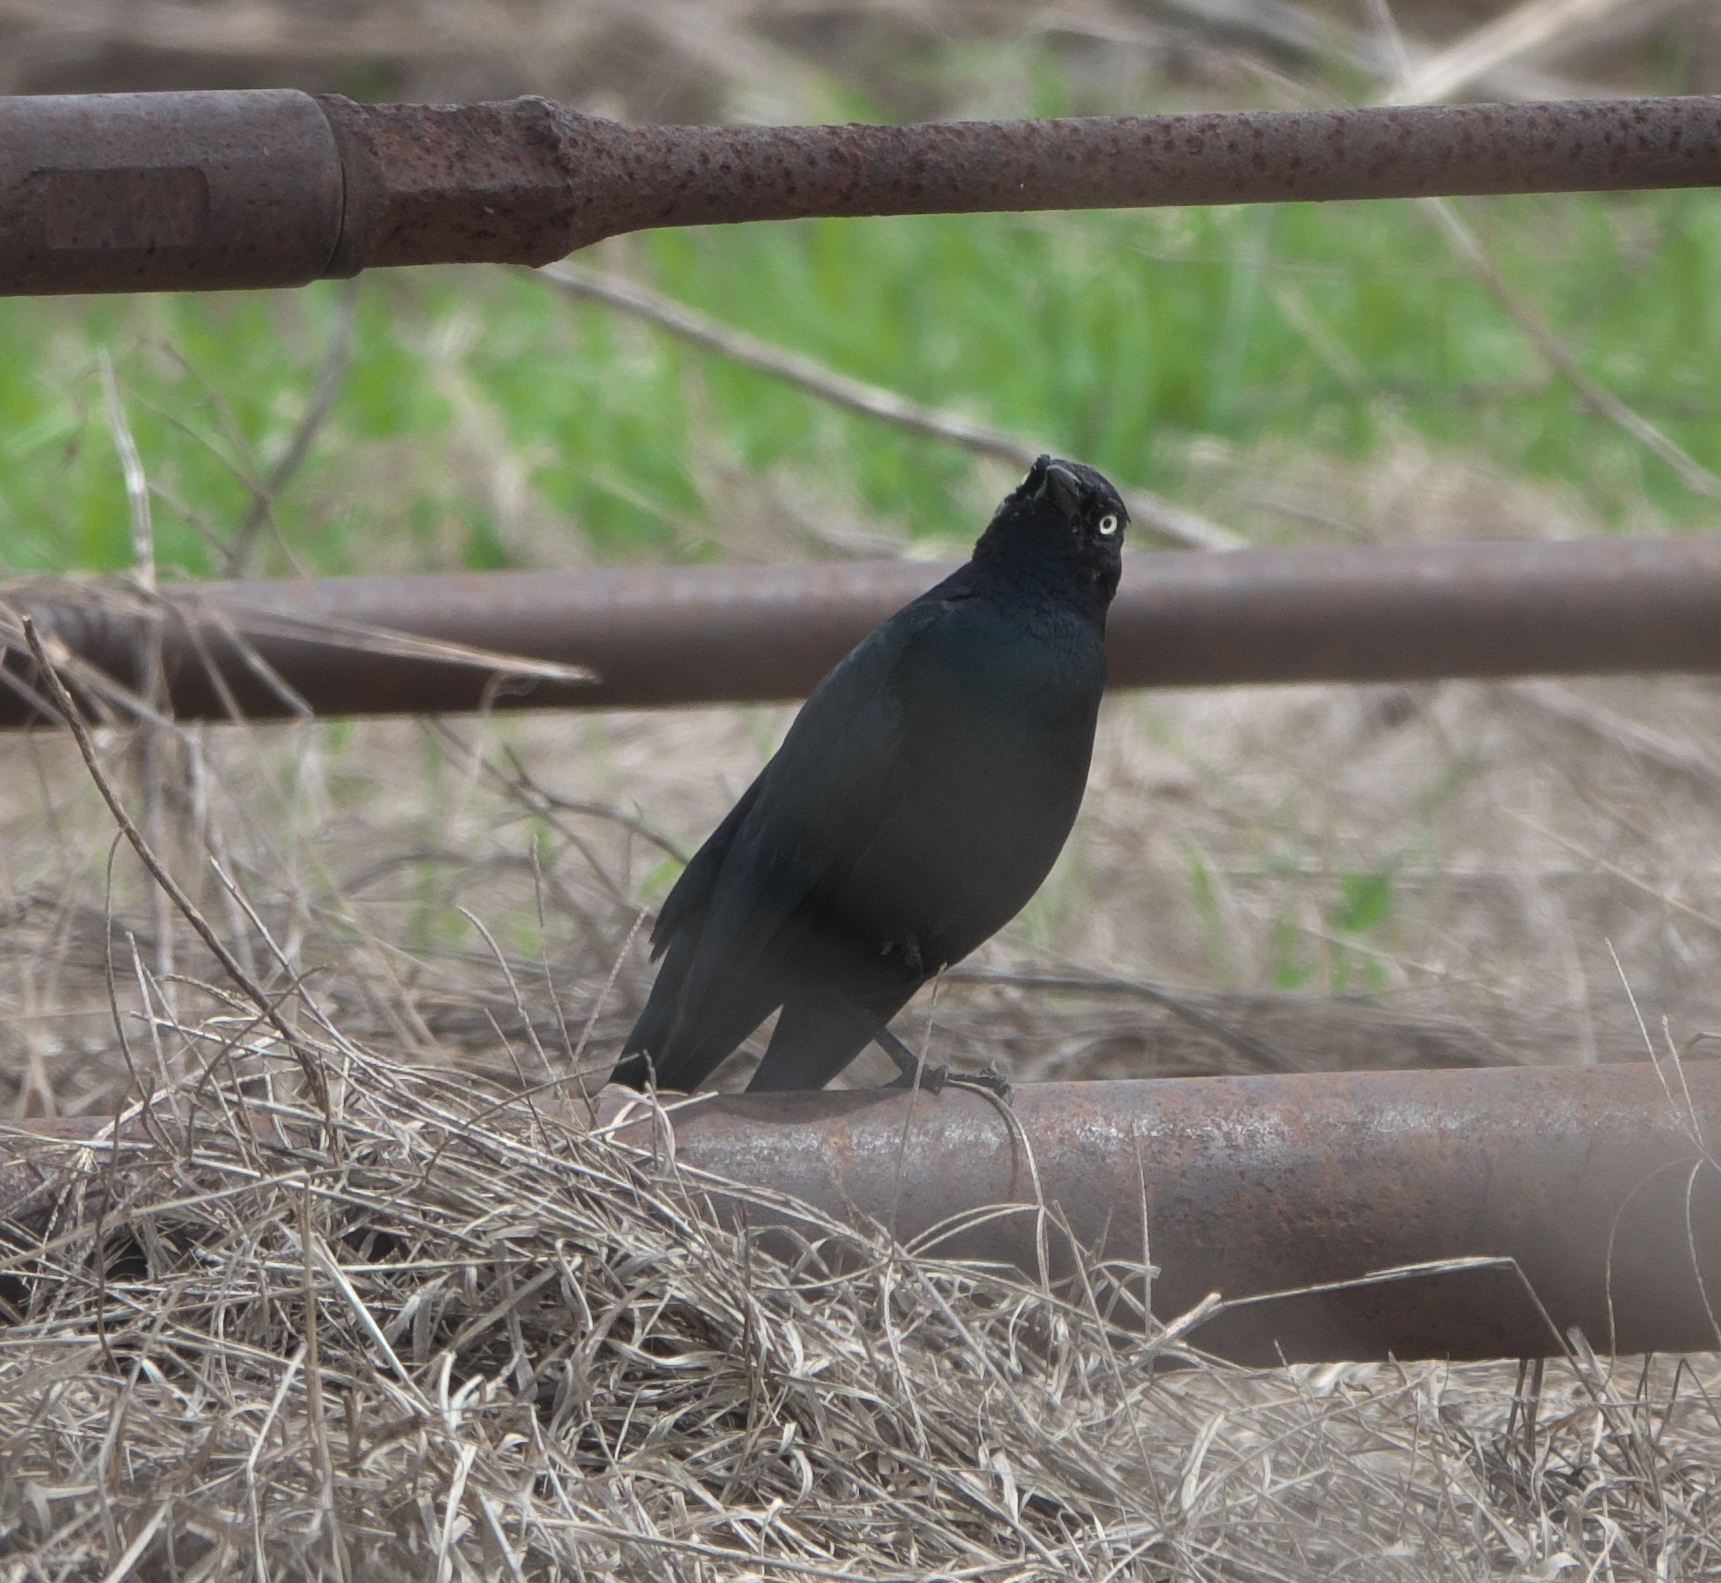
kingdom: Animalia
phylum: Chordata
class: Aves
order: Passeriformes
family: Icteridae
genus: Euphagus
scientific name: Euphagus cyanocephalus
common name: Brewer's blackbird
